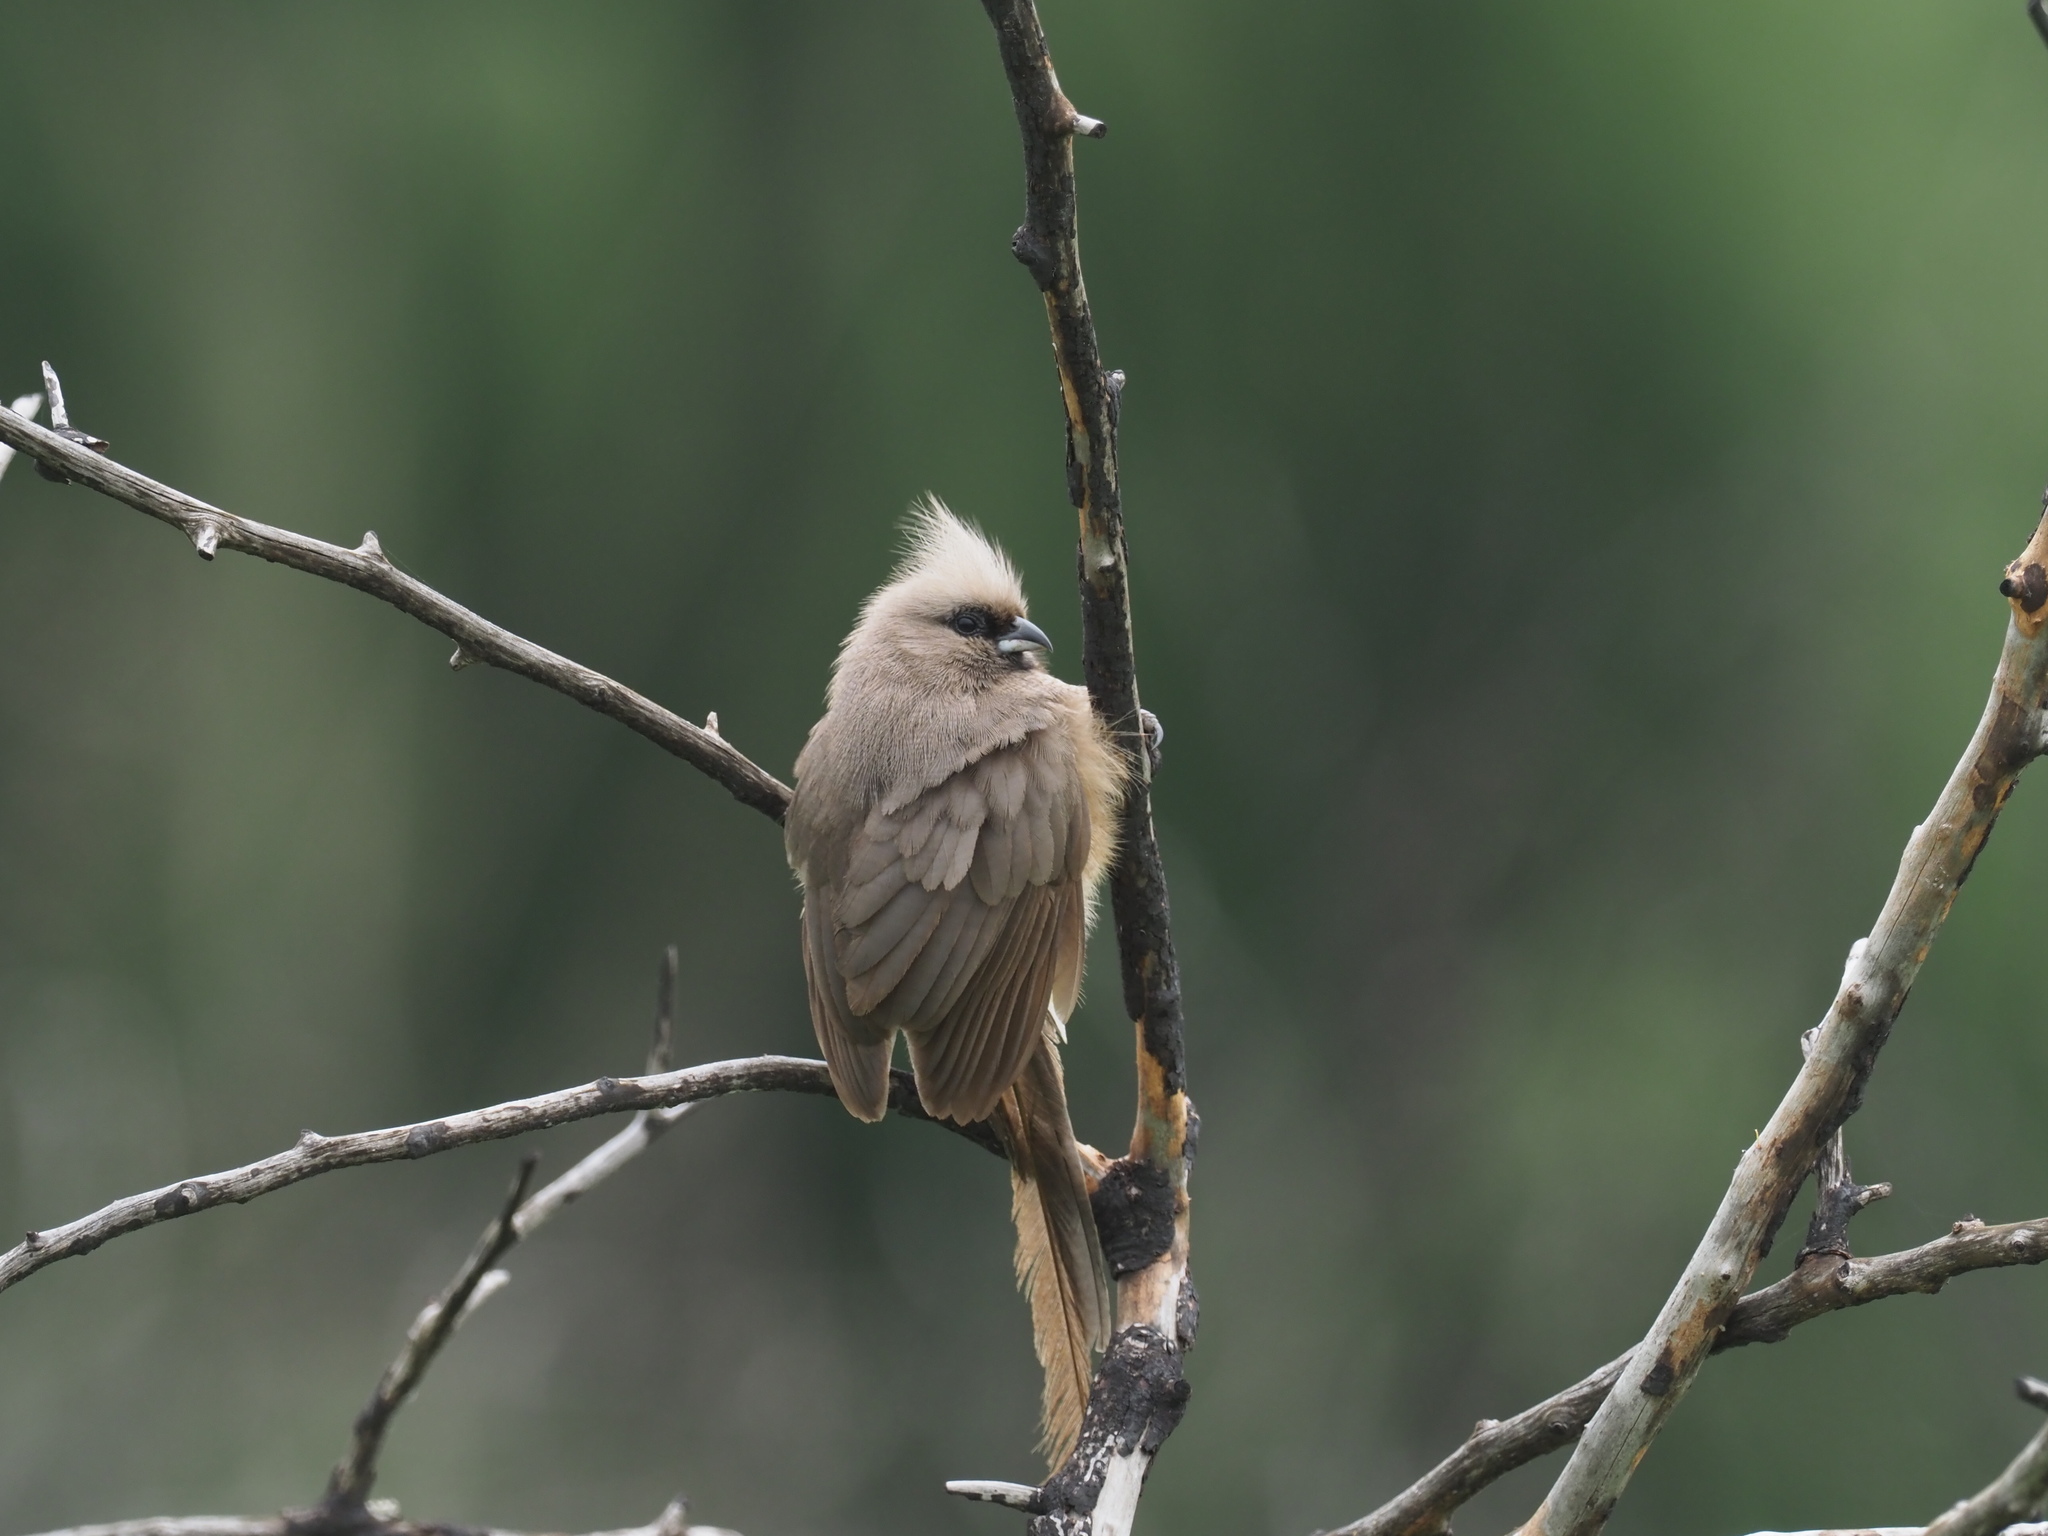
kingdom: Animalia
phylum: Chordata
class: Aves
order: Coliiformes
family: Coliidae
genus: Colius
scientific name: Colius striatus
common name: Speckled mousebird
